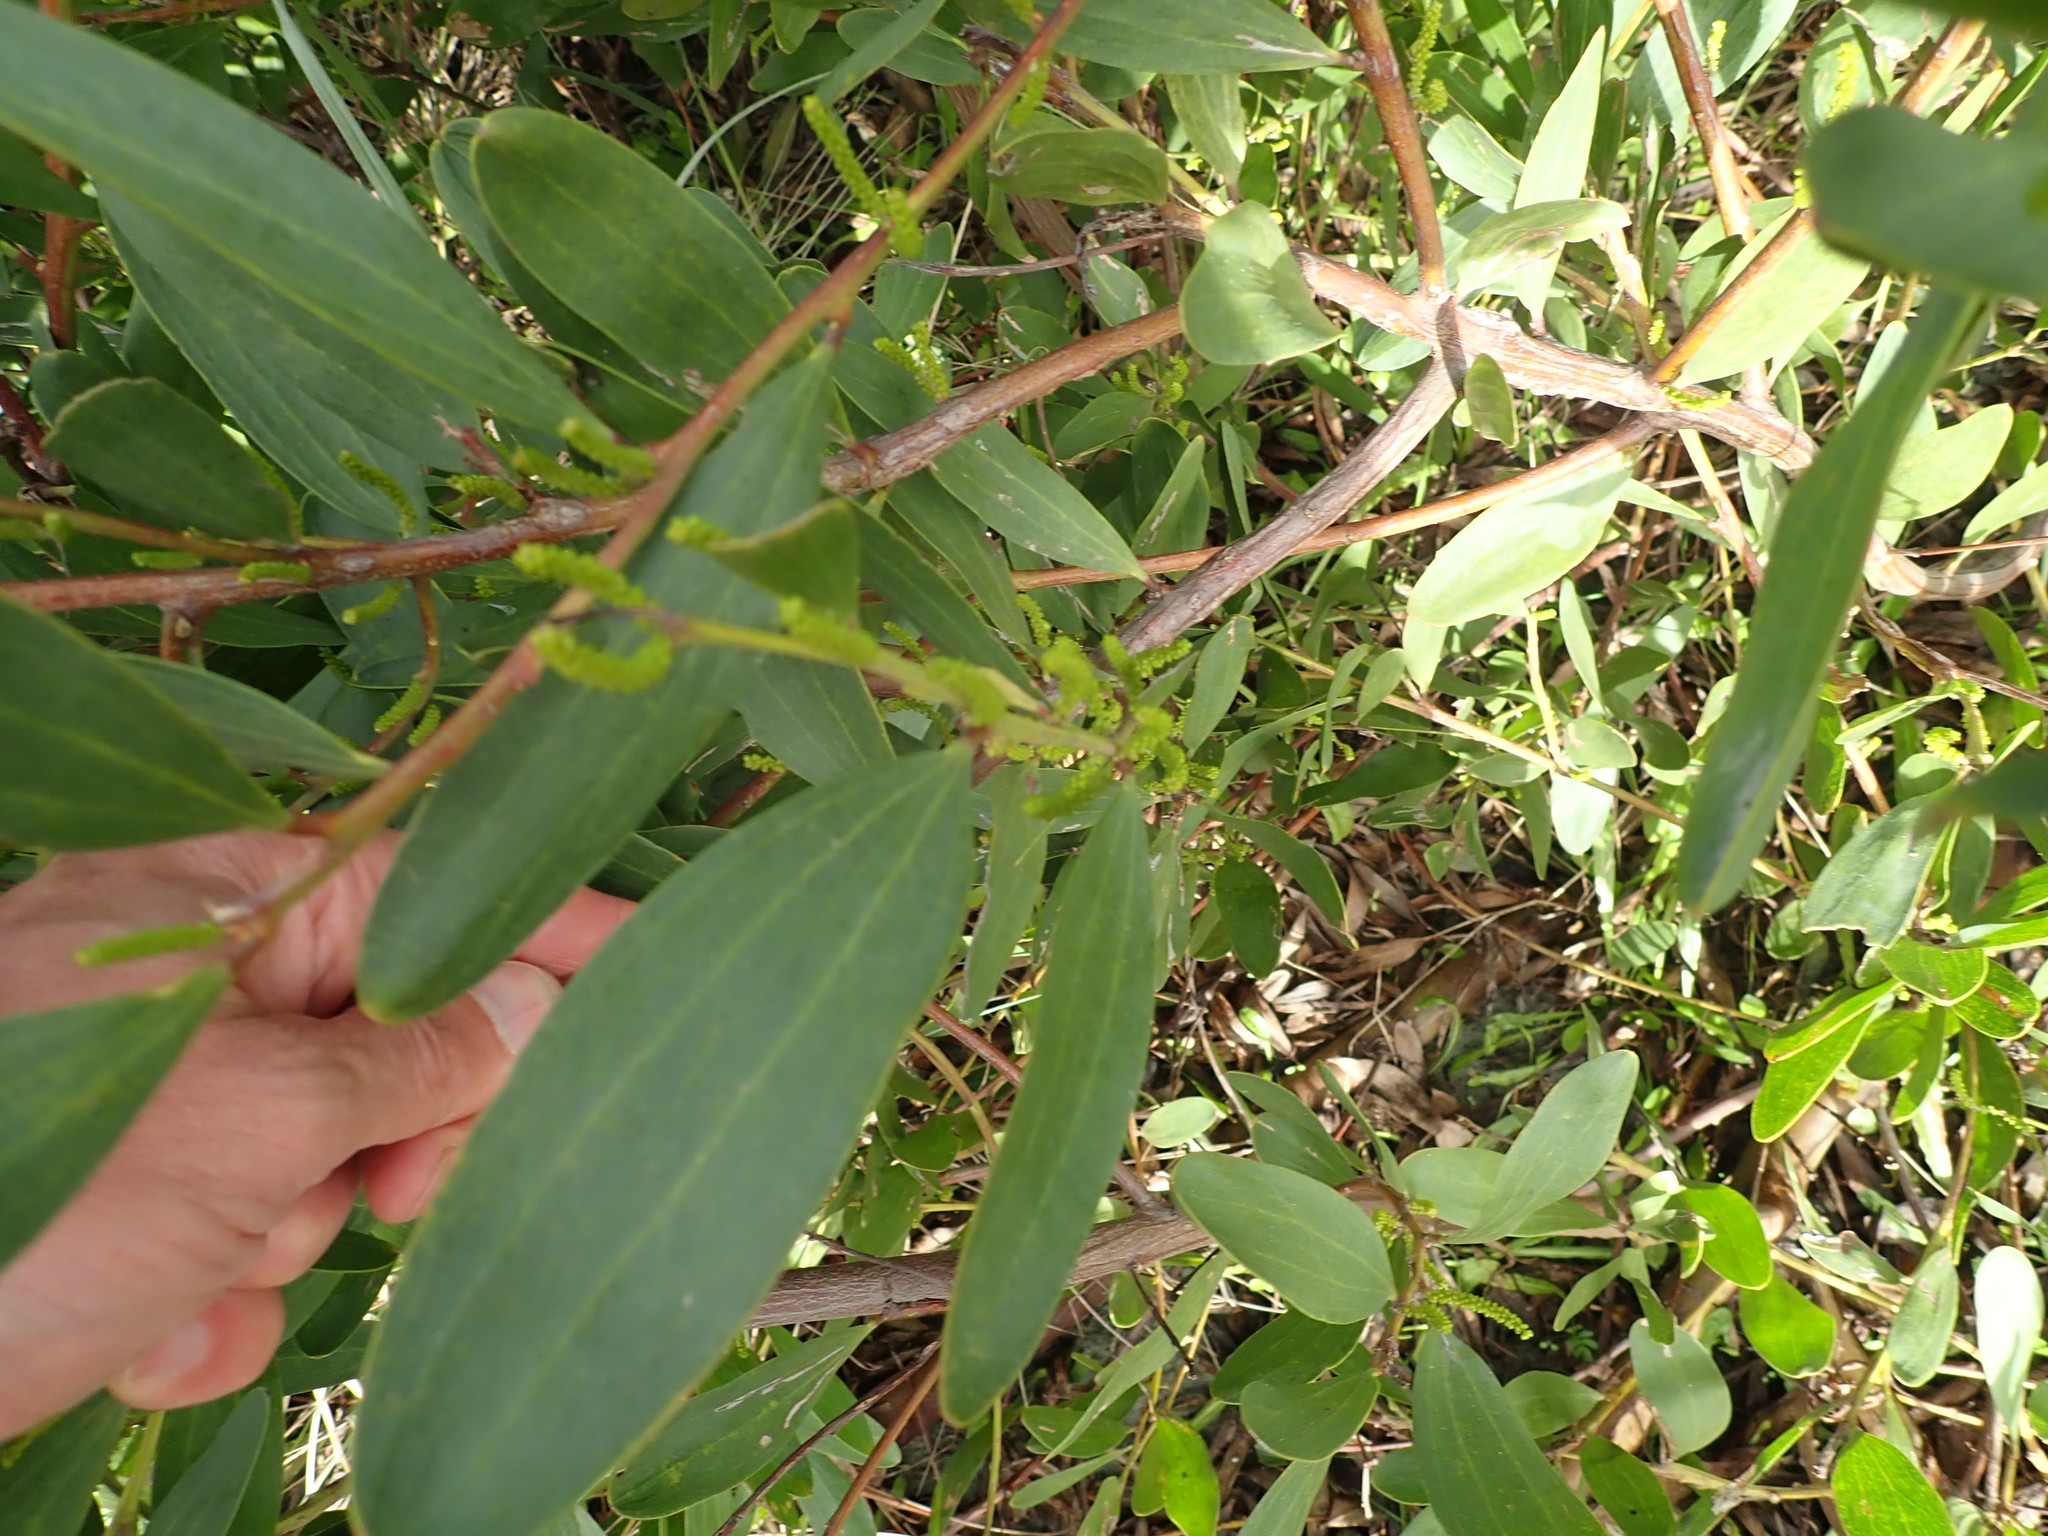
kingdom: Plantae
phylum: Tracheophyta
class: Magnoliopsida
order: Fabales
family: Fabaceae
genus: Acacia
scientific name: Acacia longifolia
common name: Sydney golden wattle
